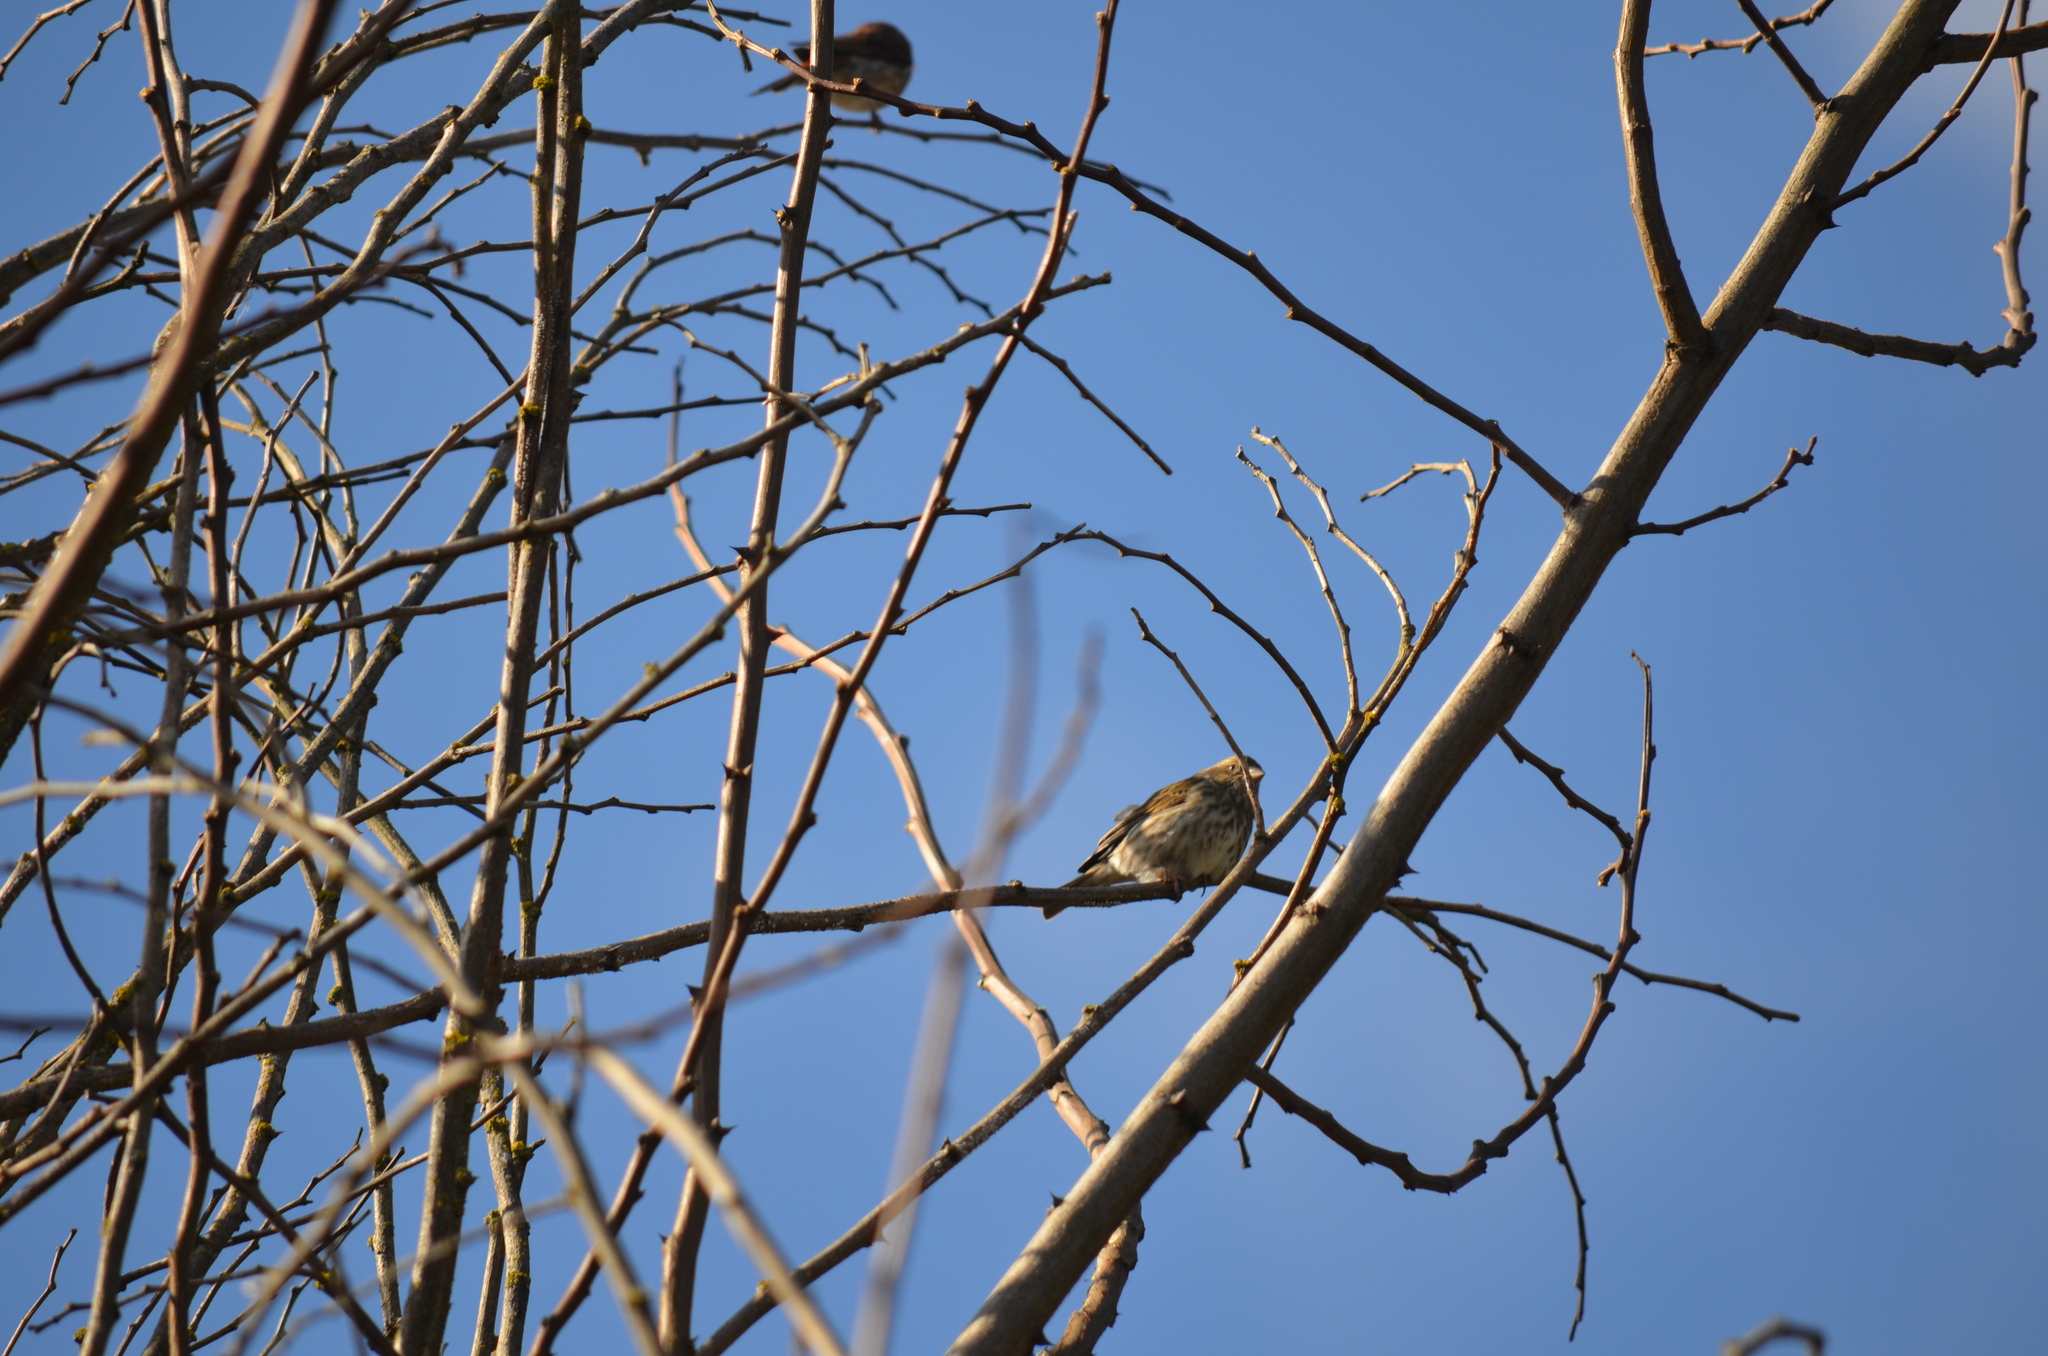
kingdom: Animalia
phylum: Chordata
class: Aves
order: Passeriformes
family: Fringillidae
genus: Haemorhous
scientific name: Haemorhous purpureus
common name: Purple finch
